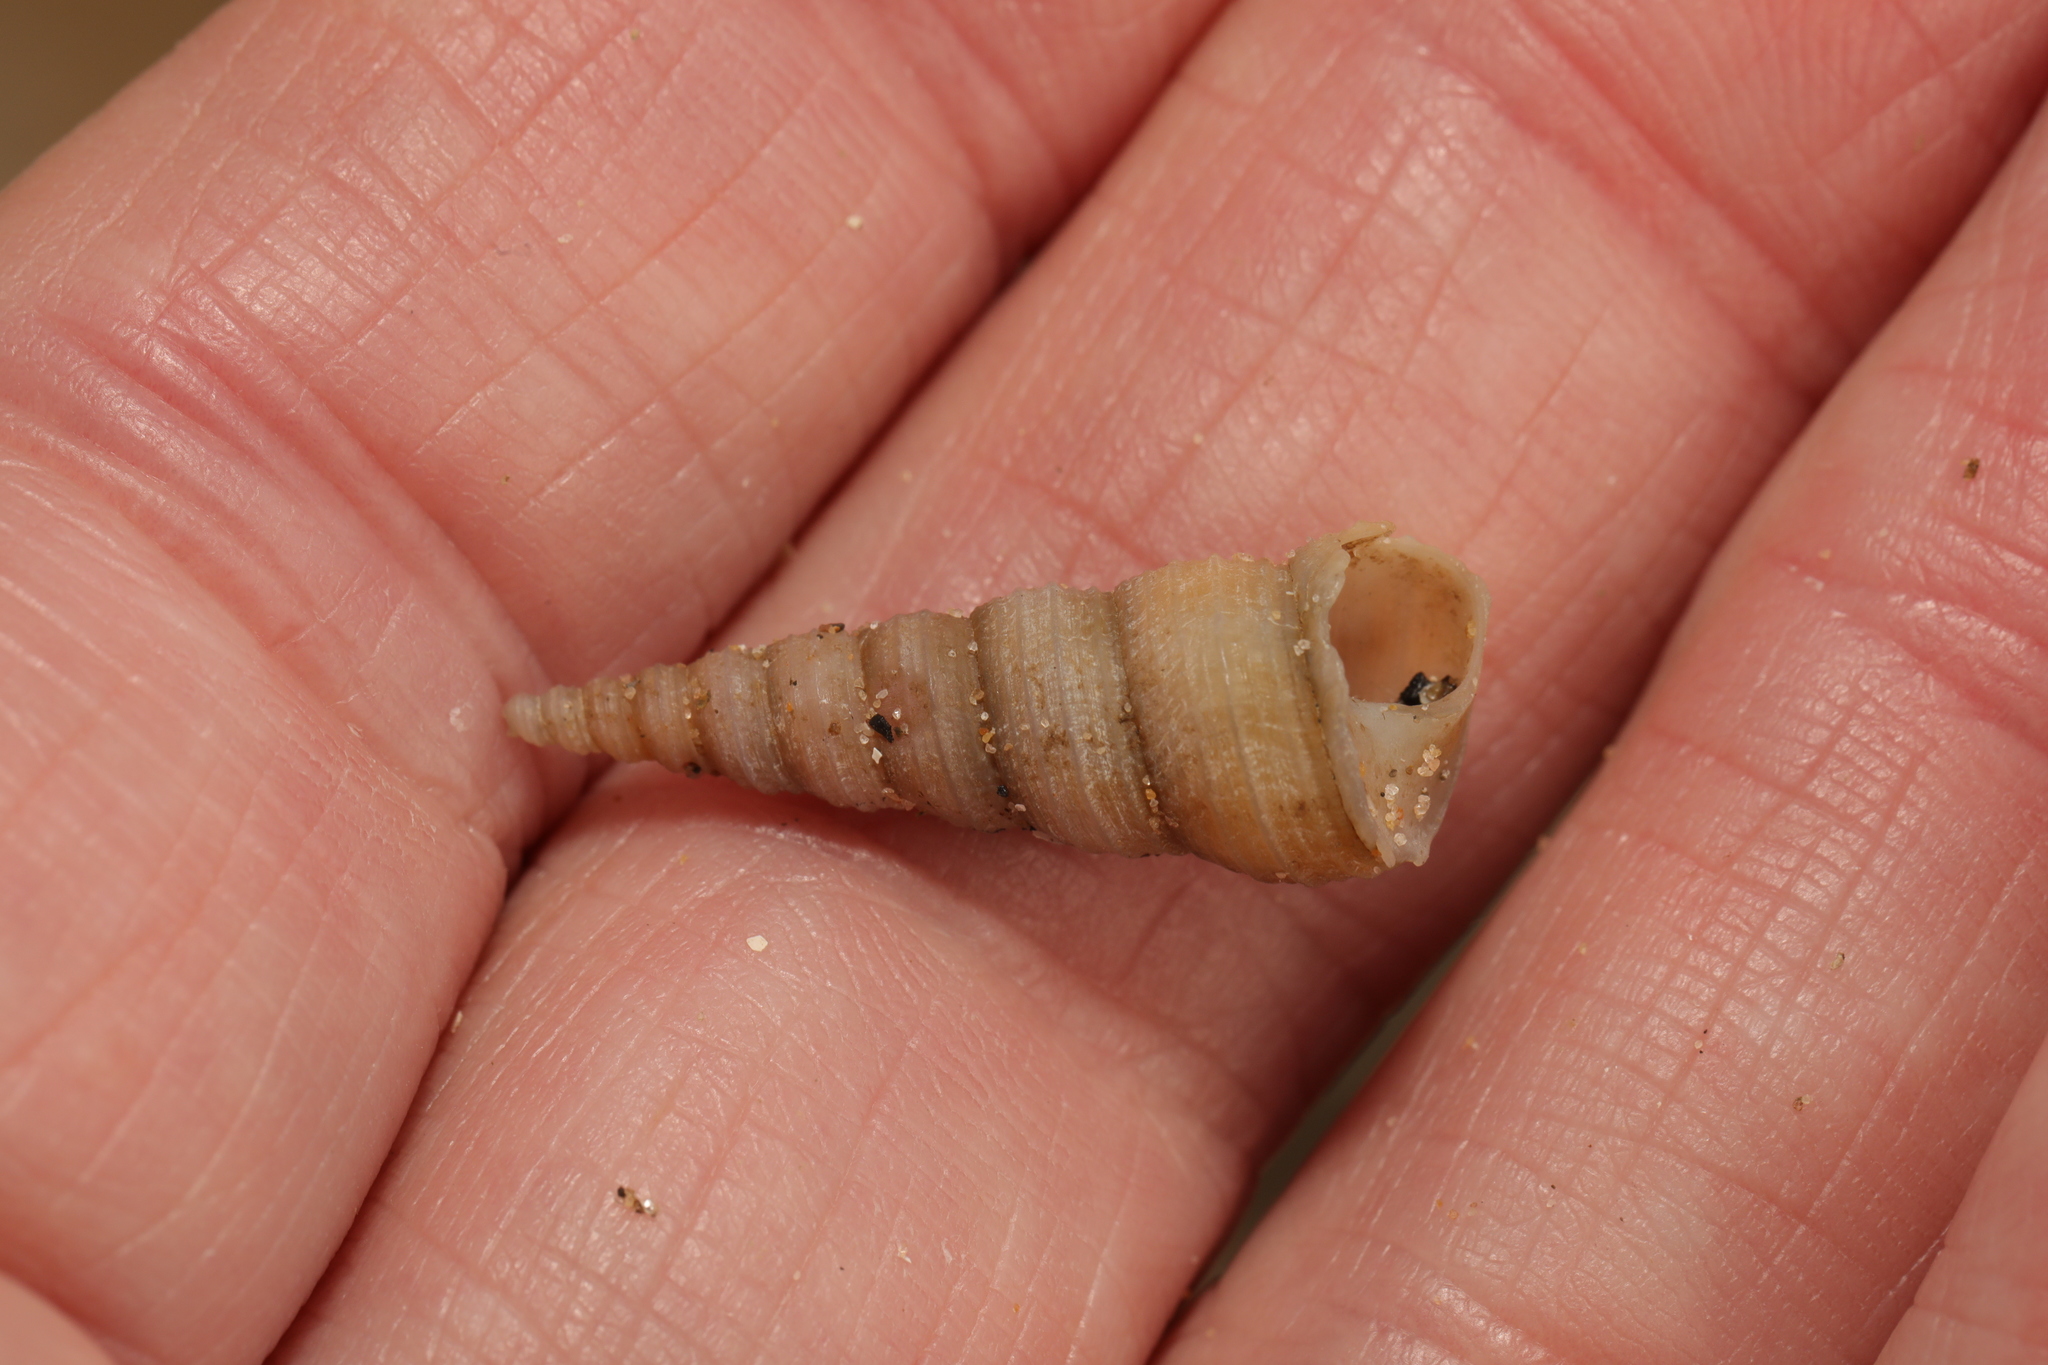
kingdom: Animalia
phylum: Mollusca
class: Gastropoda
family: Turritellidae
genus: Turritellinella
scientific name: Turritellinella tricarinata
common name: Auger shell
